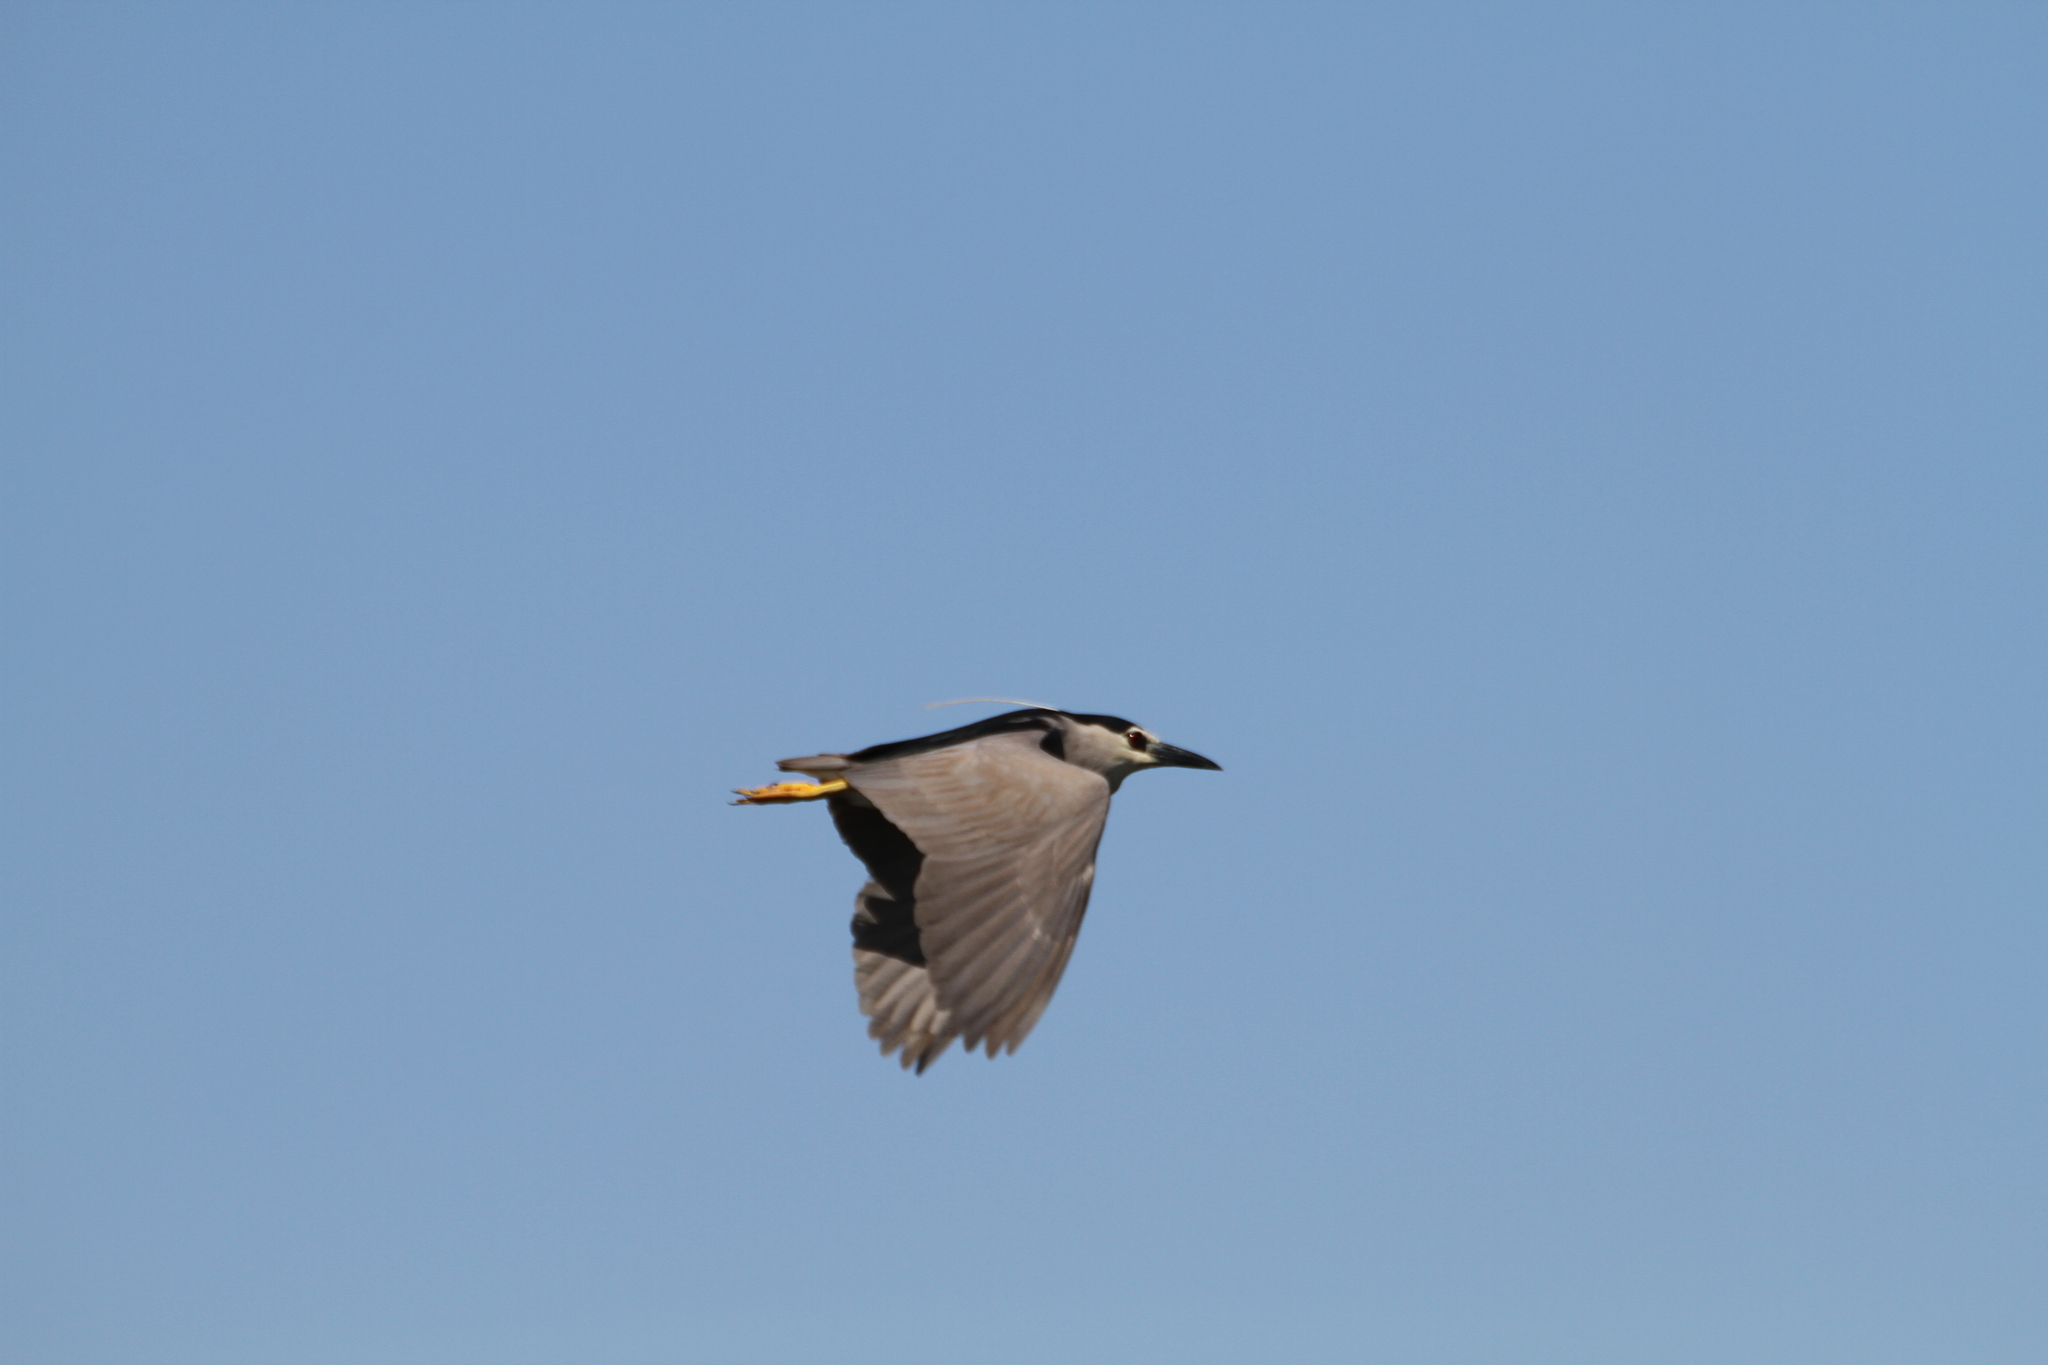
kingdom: Animalia
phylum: Chordata
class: Aves
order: Pelecaniformes
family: Ardeidae
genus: Nycticorax
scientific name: Nycticorax nycticorax
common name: Black-crowned night heron
